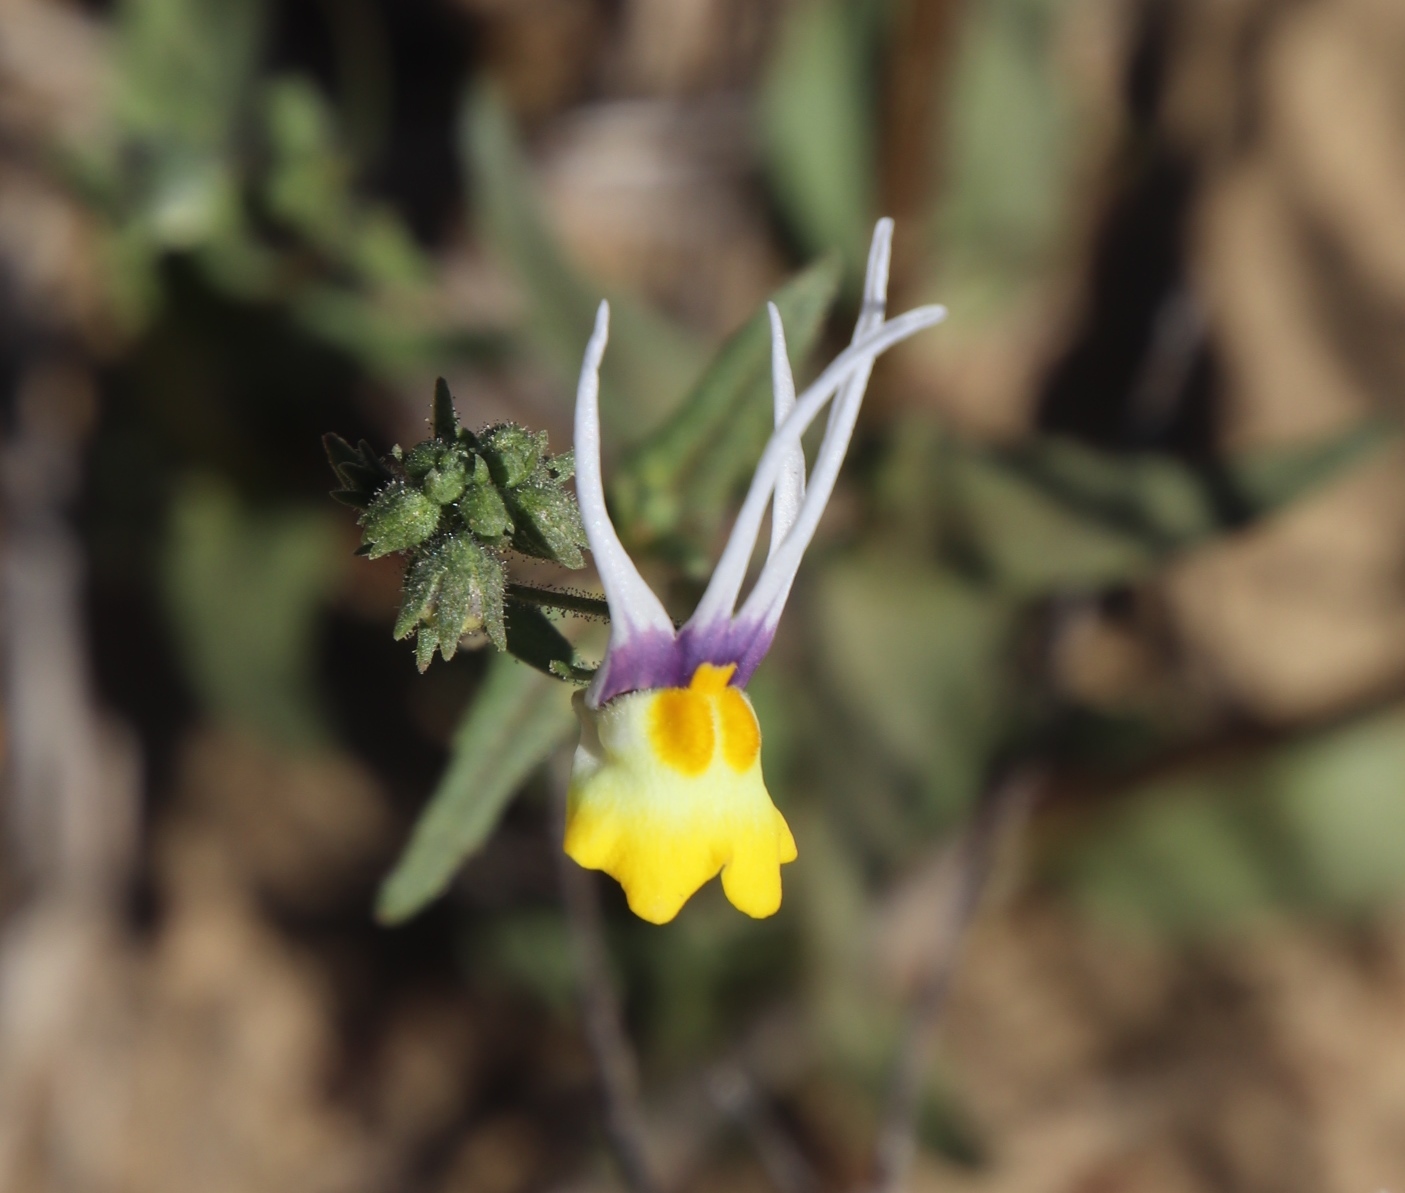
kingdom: Plantae
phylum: Tracheophyta
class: Magnoliopsida
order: Lamiales
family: Scrophulariaceae
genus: Nemesia
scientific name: Nemesia cheiranthus
